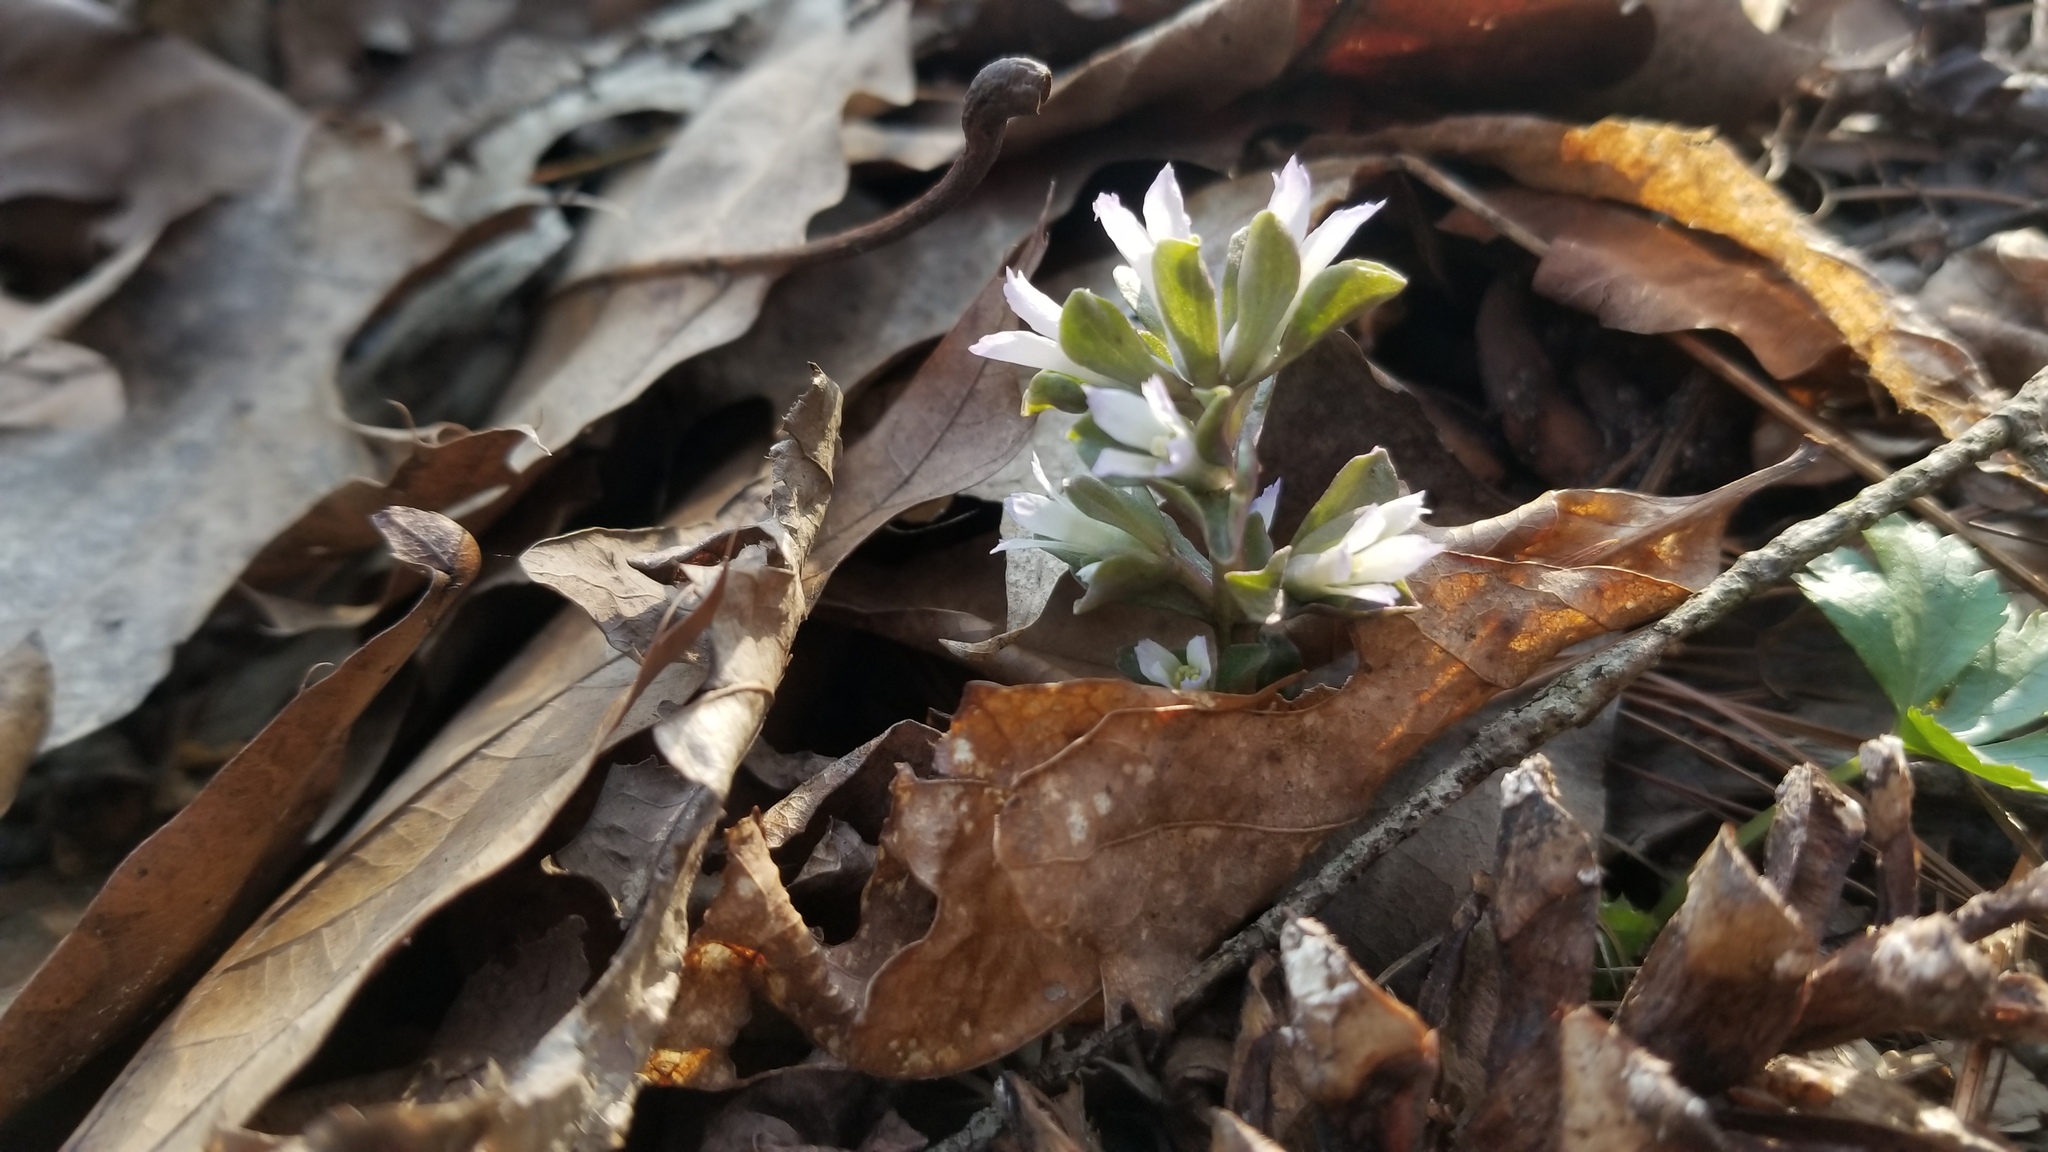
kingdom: Plantae
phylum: Tracheophyta
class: Magnoliopsida
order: Gentianales
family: Gentianaceae
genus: Obolaria
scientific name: Obolaria virginica
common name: Pennywort
